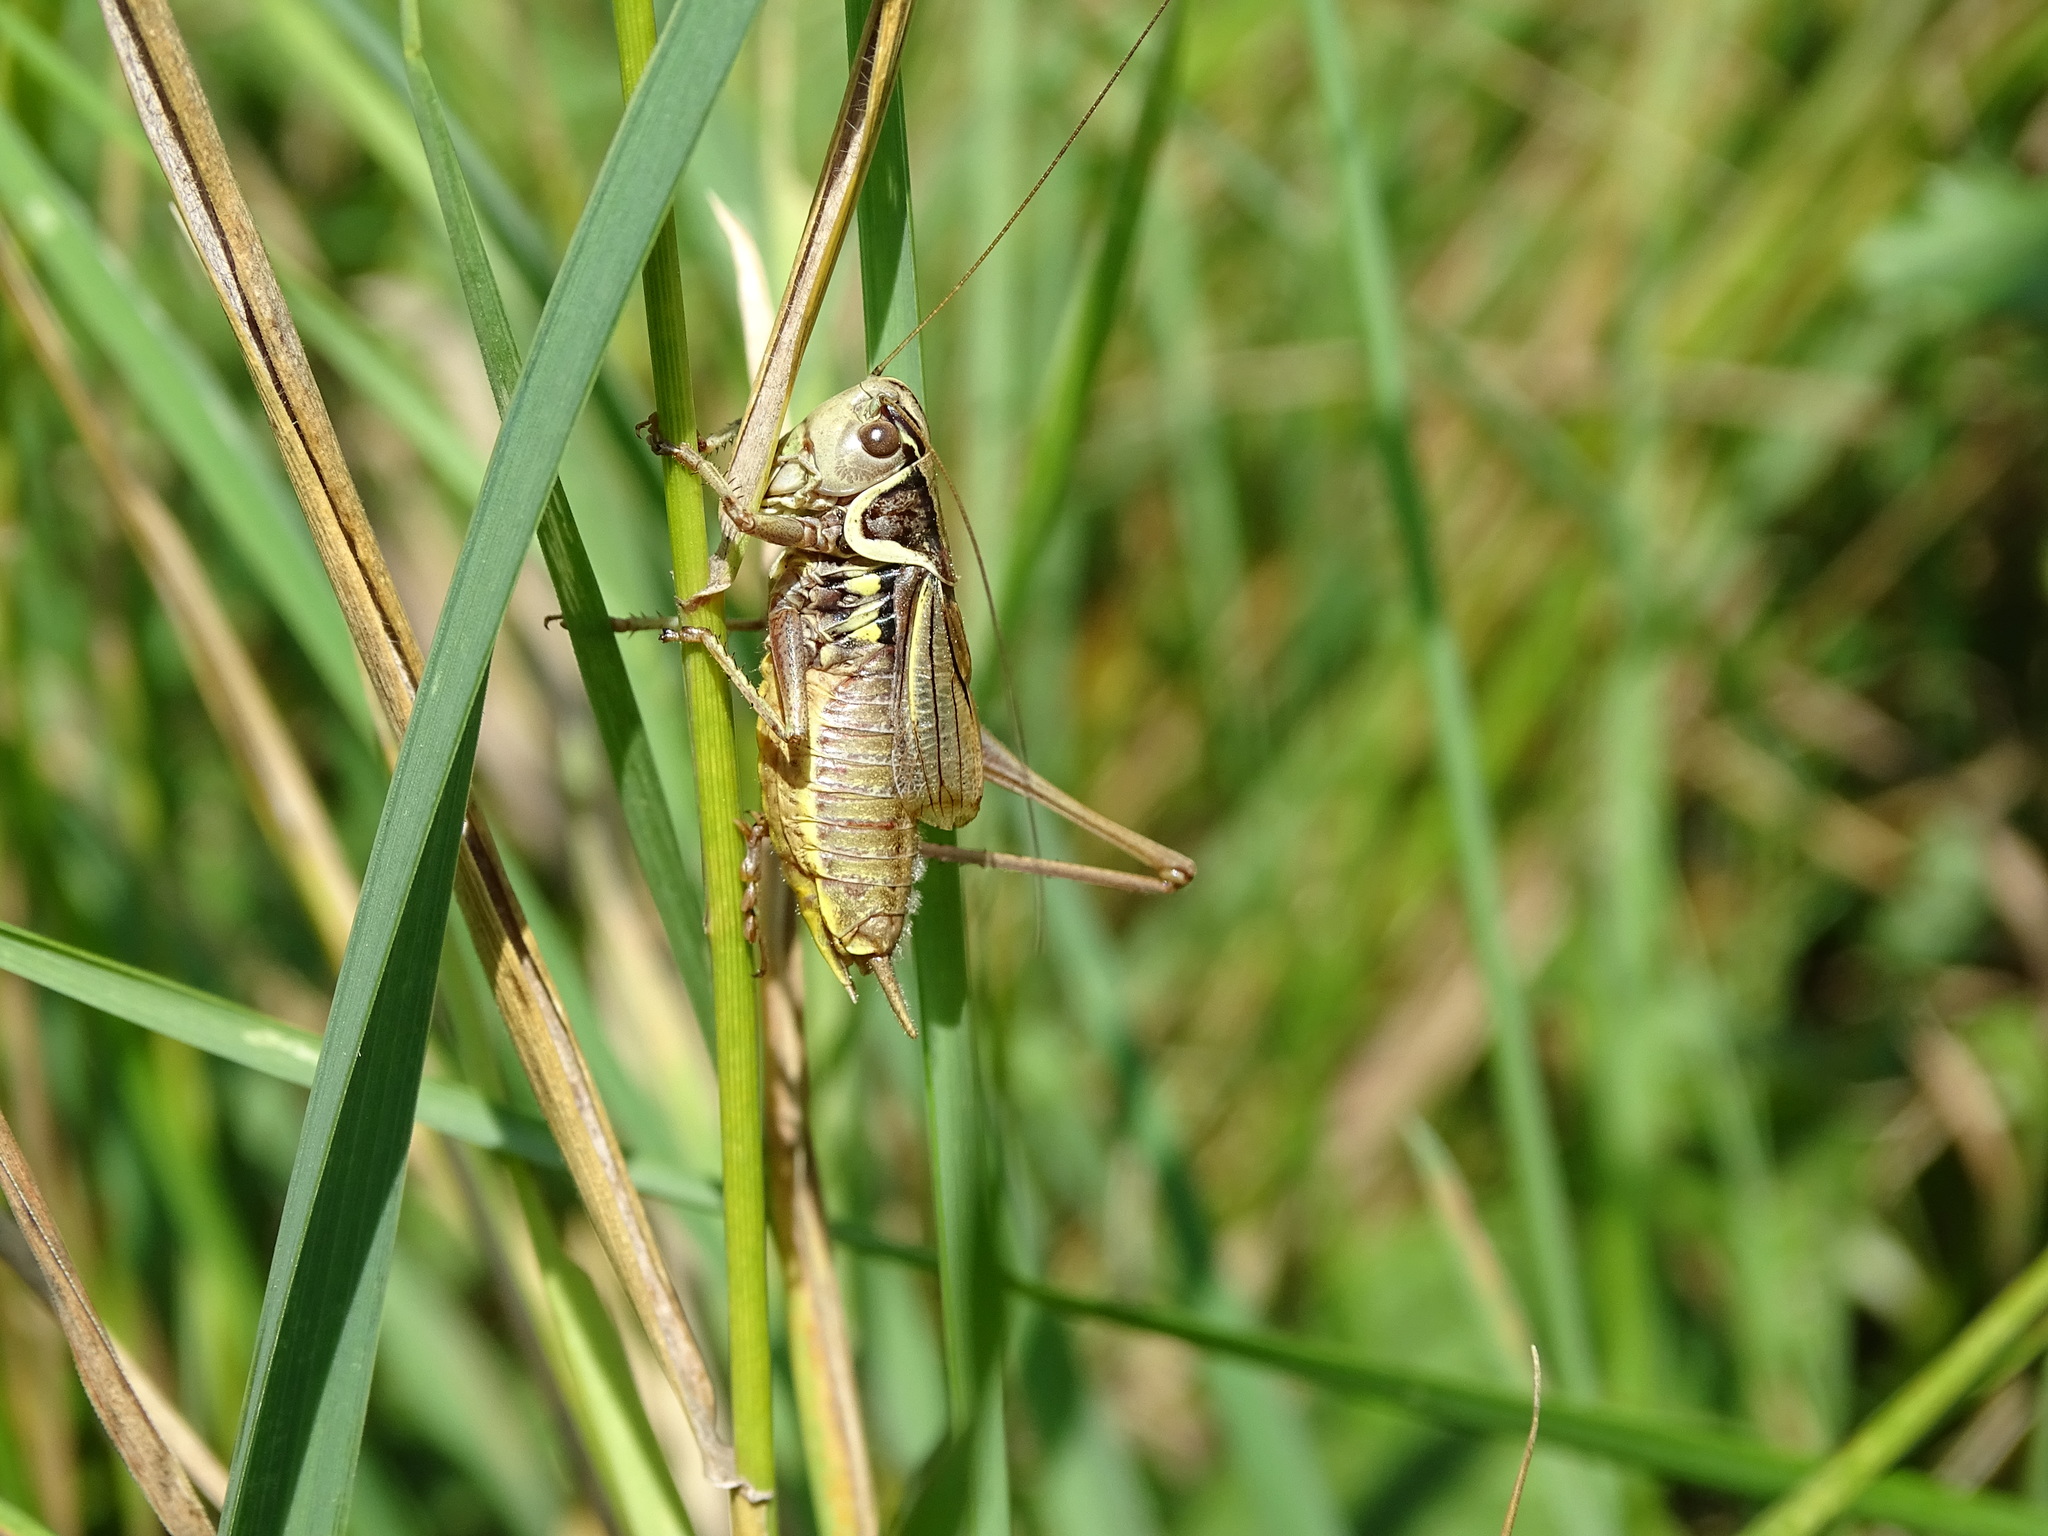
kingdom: Animalia
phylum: Arthropoda
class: Insecta
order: Orthoptera
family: Tettigoniidae
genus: Roeseliana
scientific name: Roeseliana roeselii
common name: Roesel's bush cricket
